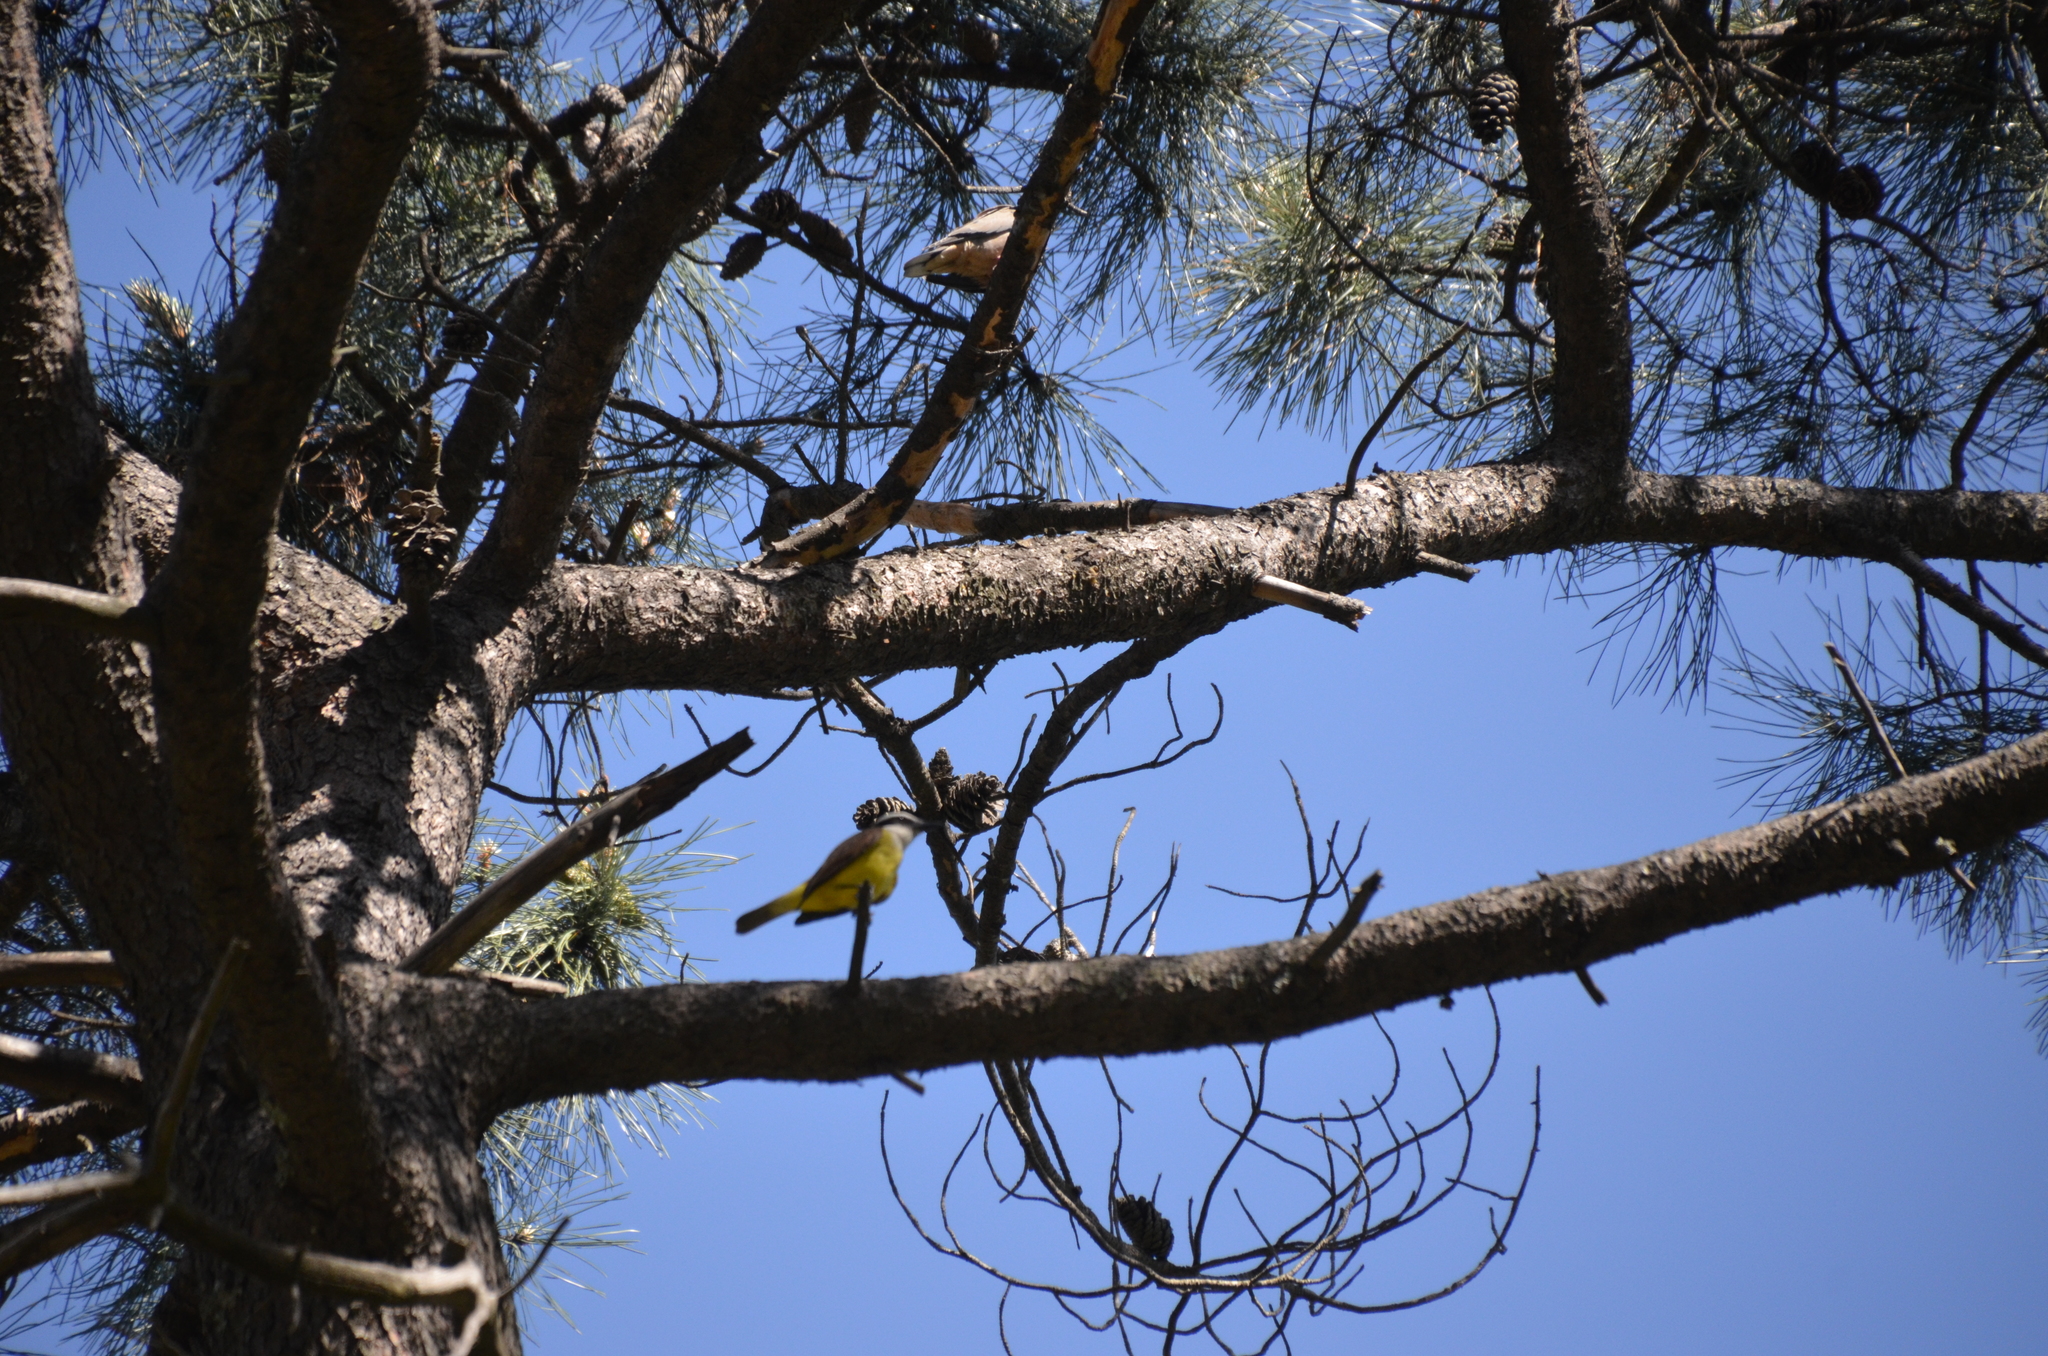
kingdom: Animalia
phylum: Chordata
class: Aves
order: Passeriformes
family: Tyrannidae
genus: Pitangus
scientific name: Pitangus sulphuratus
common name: Great kiskadee
